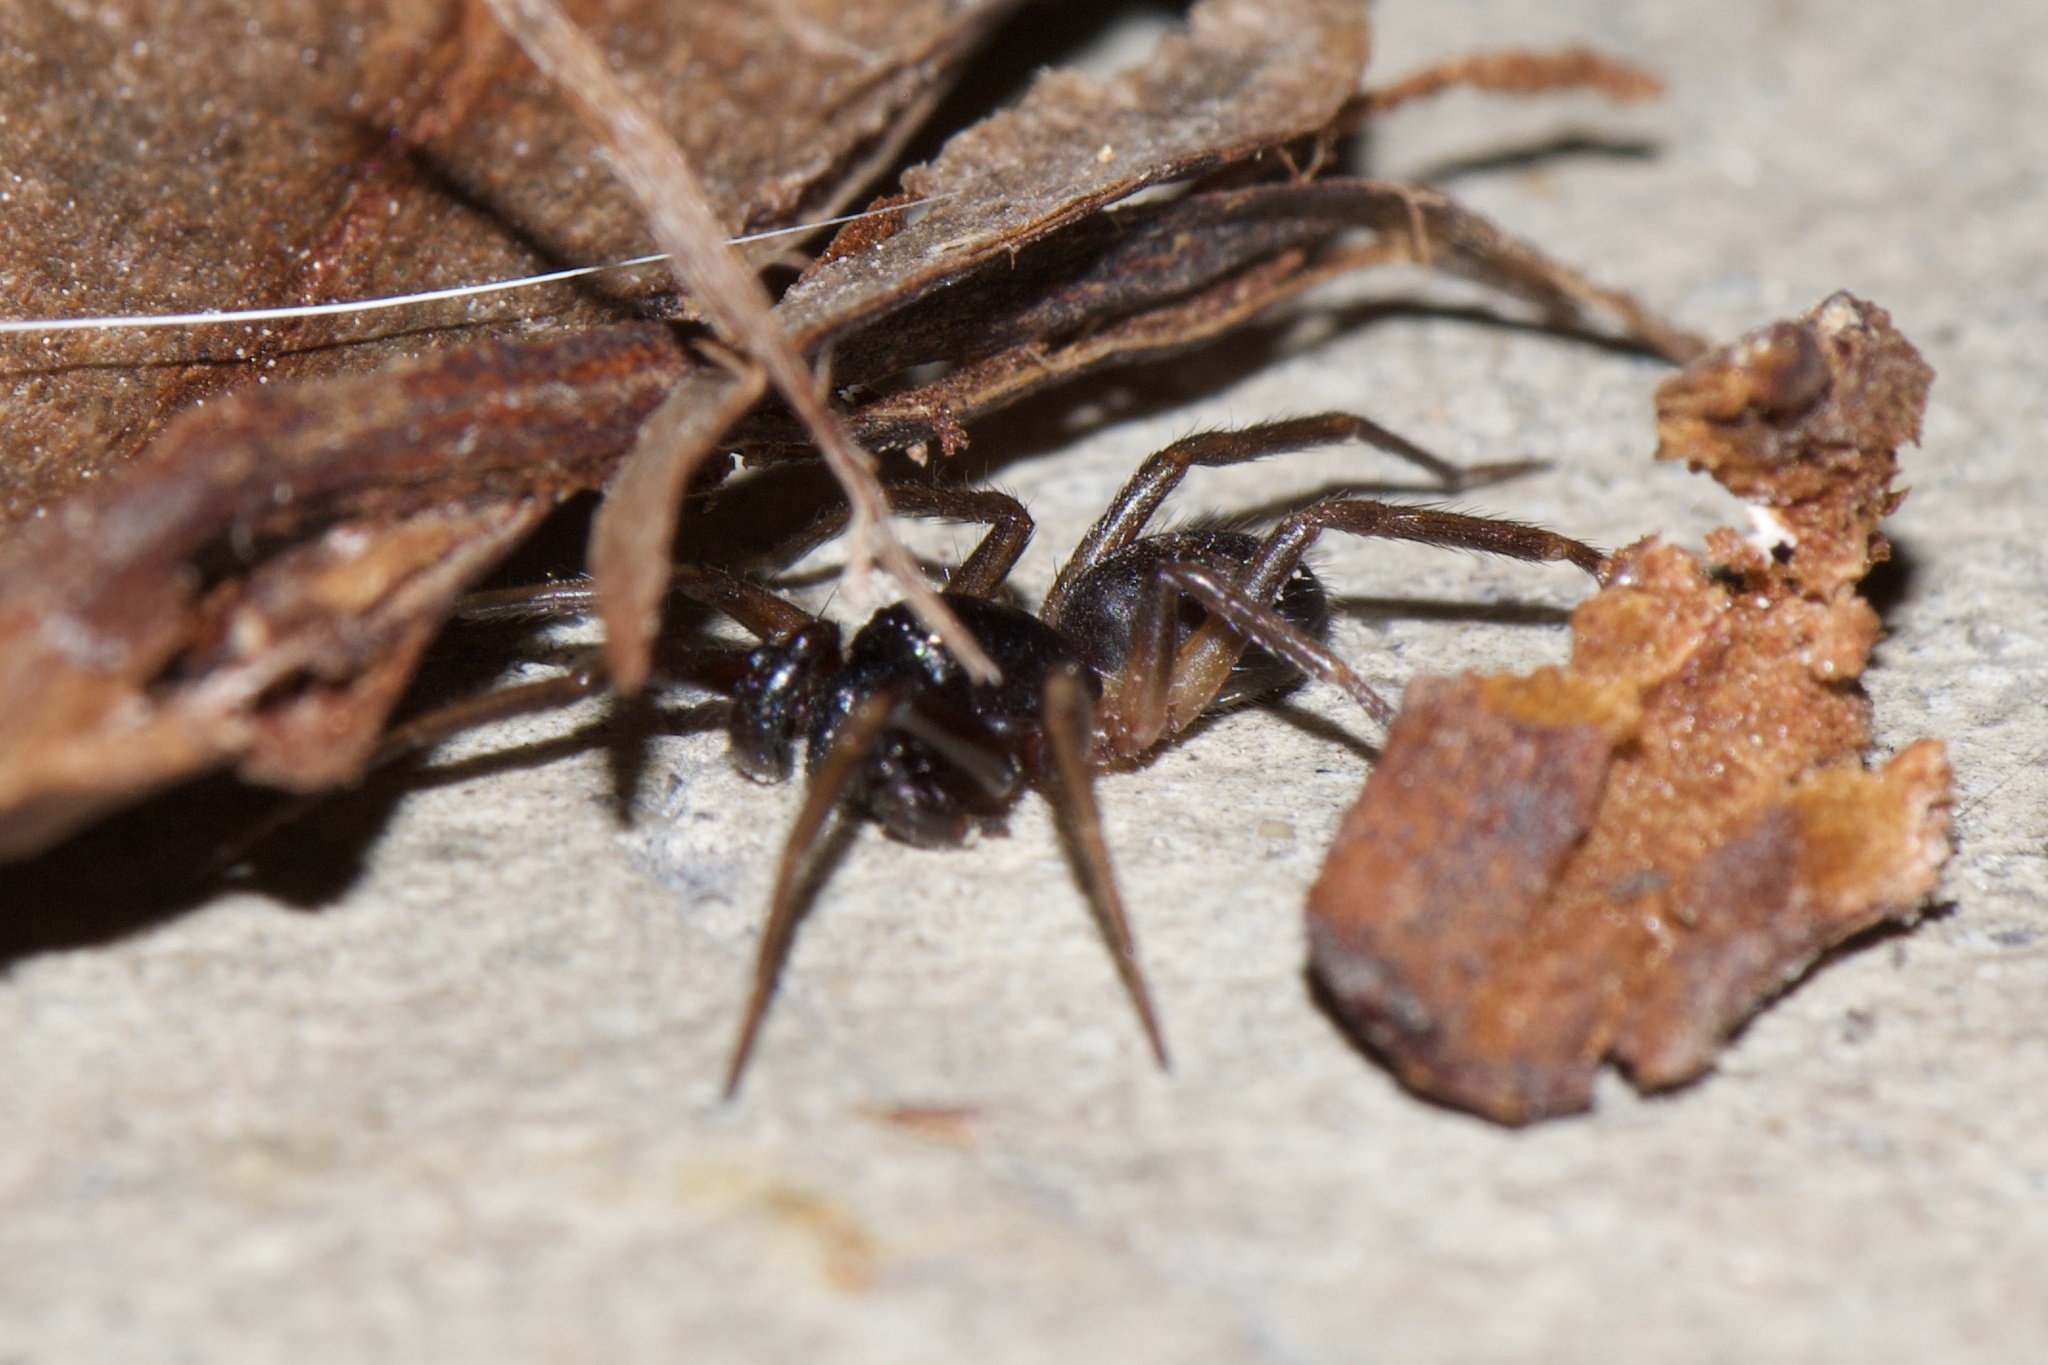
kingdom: Animalia
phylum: Arthropoda
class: Arachnida
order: Araneae
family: Corinnidae
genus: Falconina
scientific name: Falconina gracilis
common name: Antmimic spider
